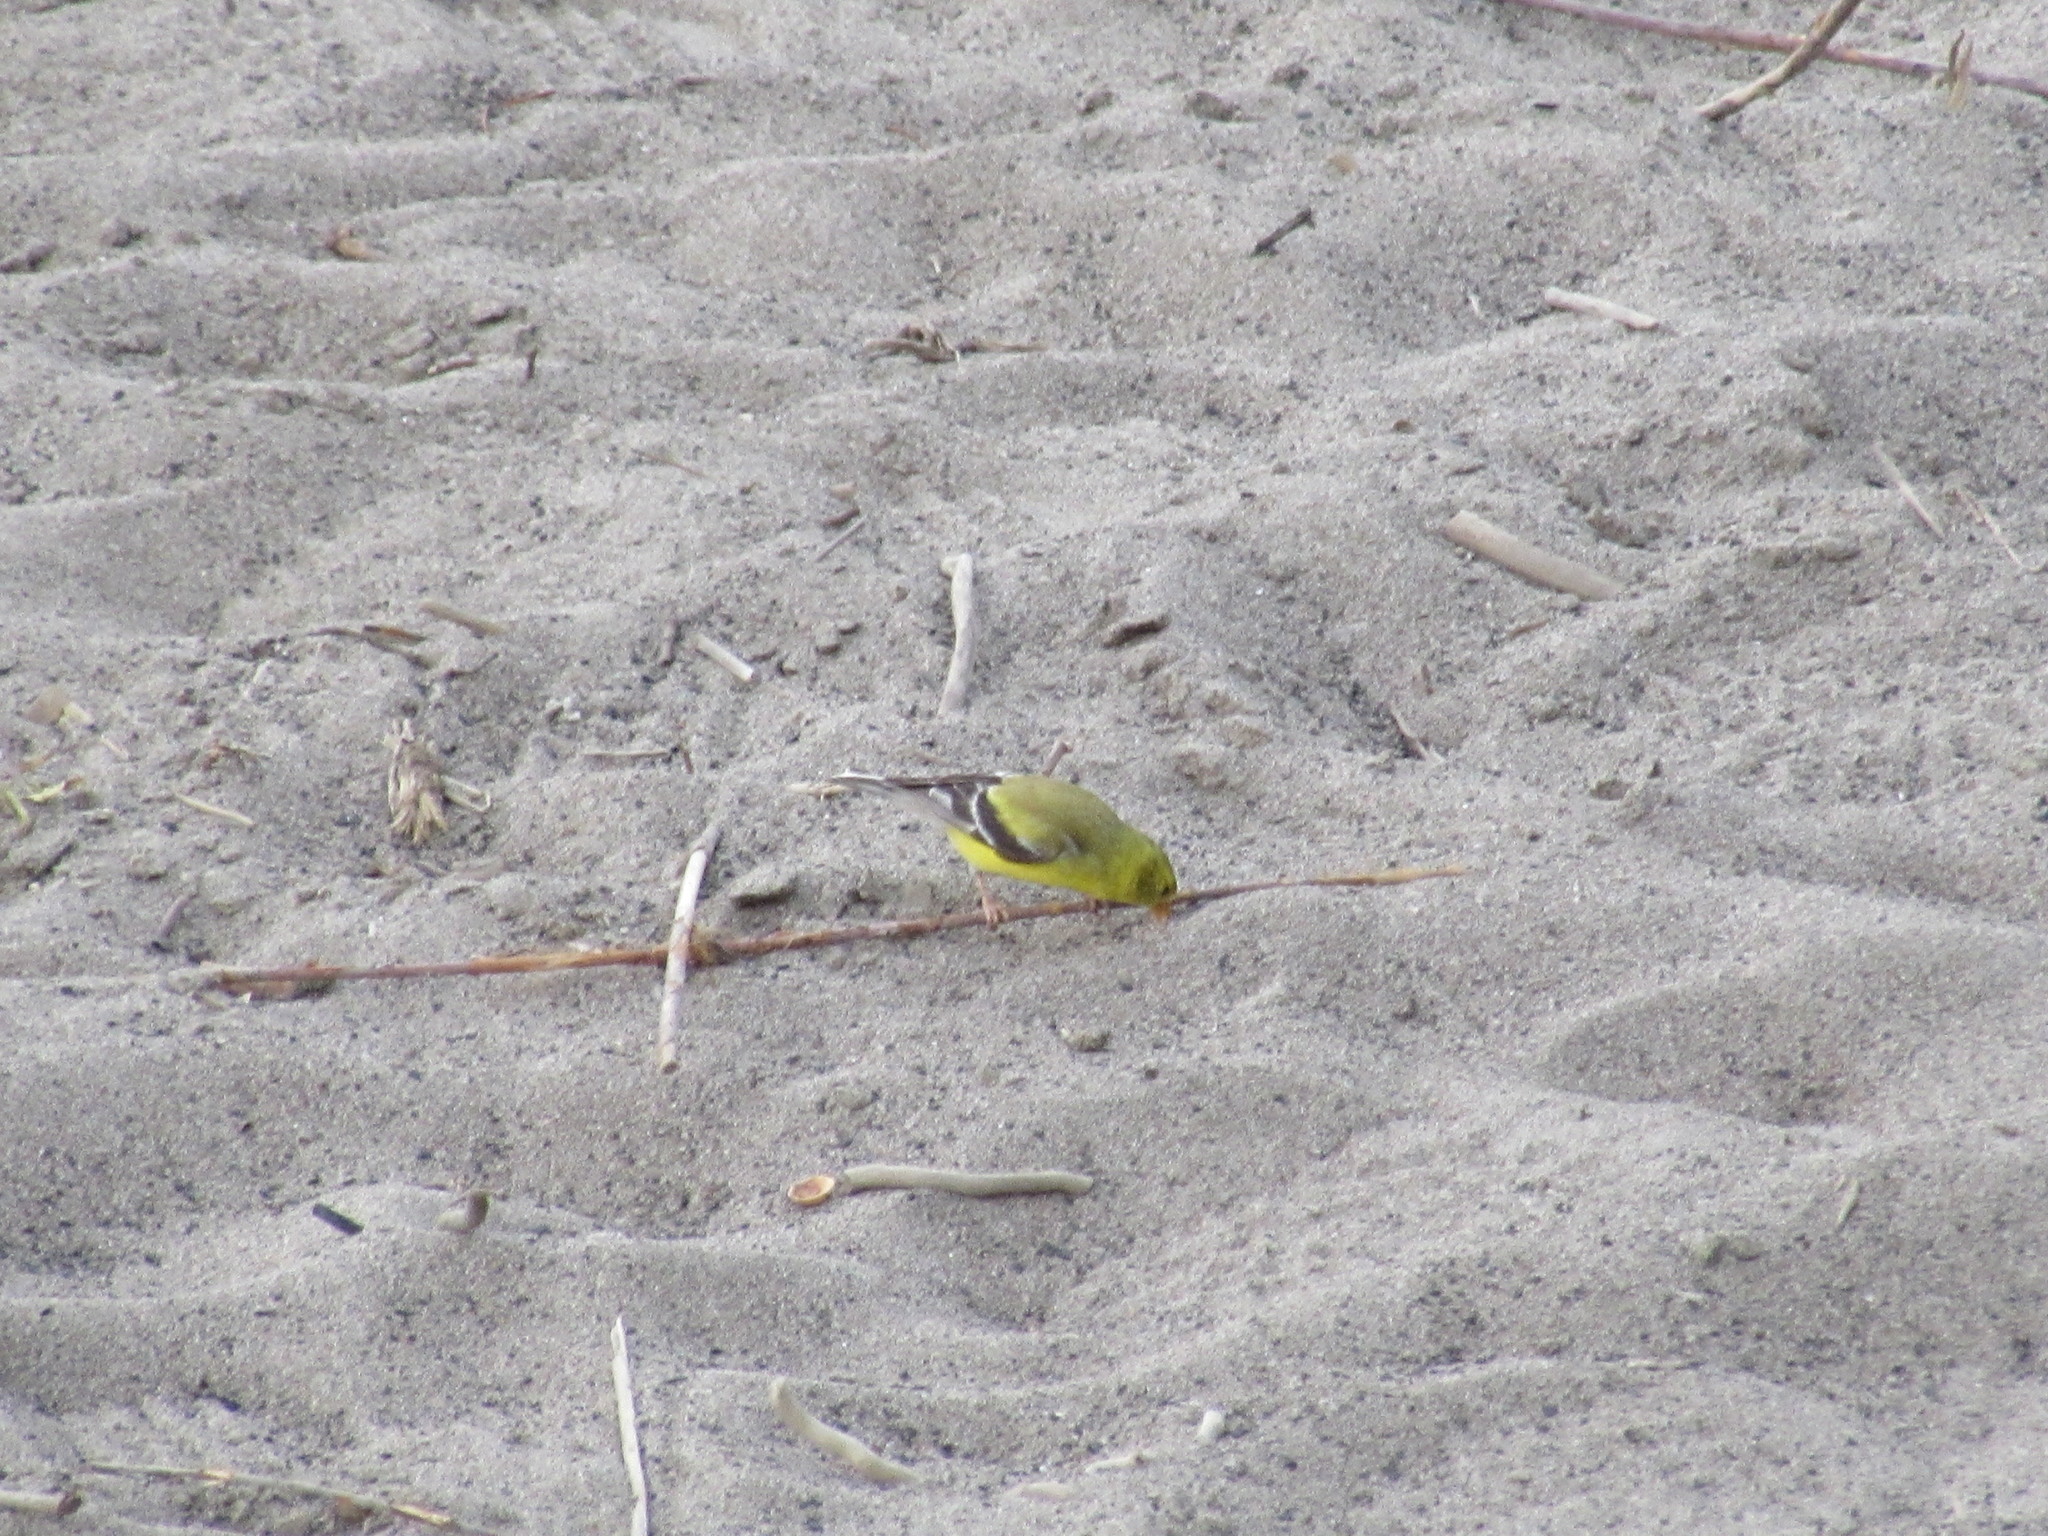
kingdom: Animalia
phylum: Chordata
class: Aves
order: Passeriformes
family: Fringillidae
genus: Spinus
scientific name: Spinus tristis
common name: American goldfinch
